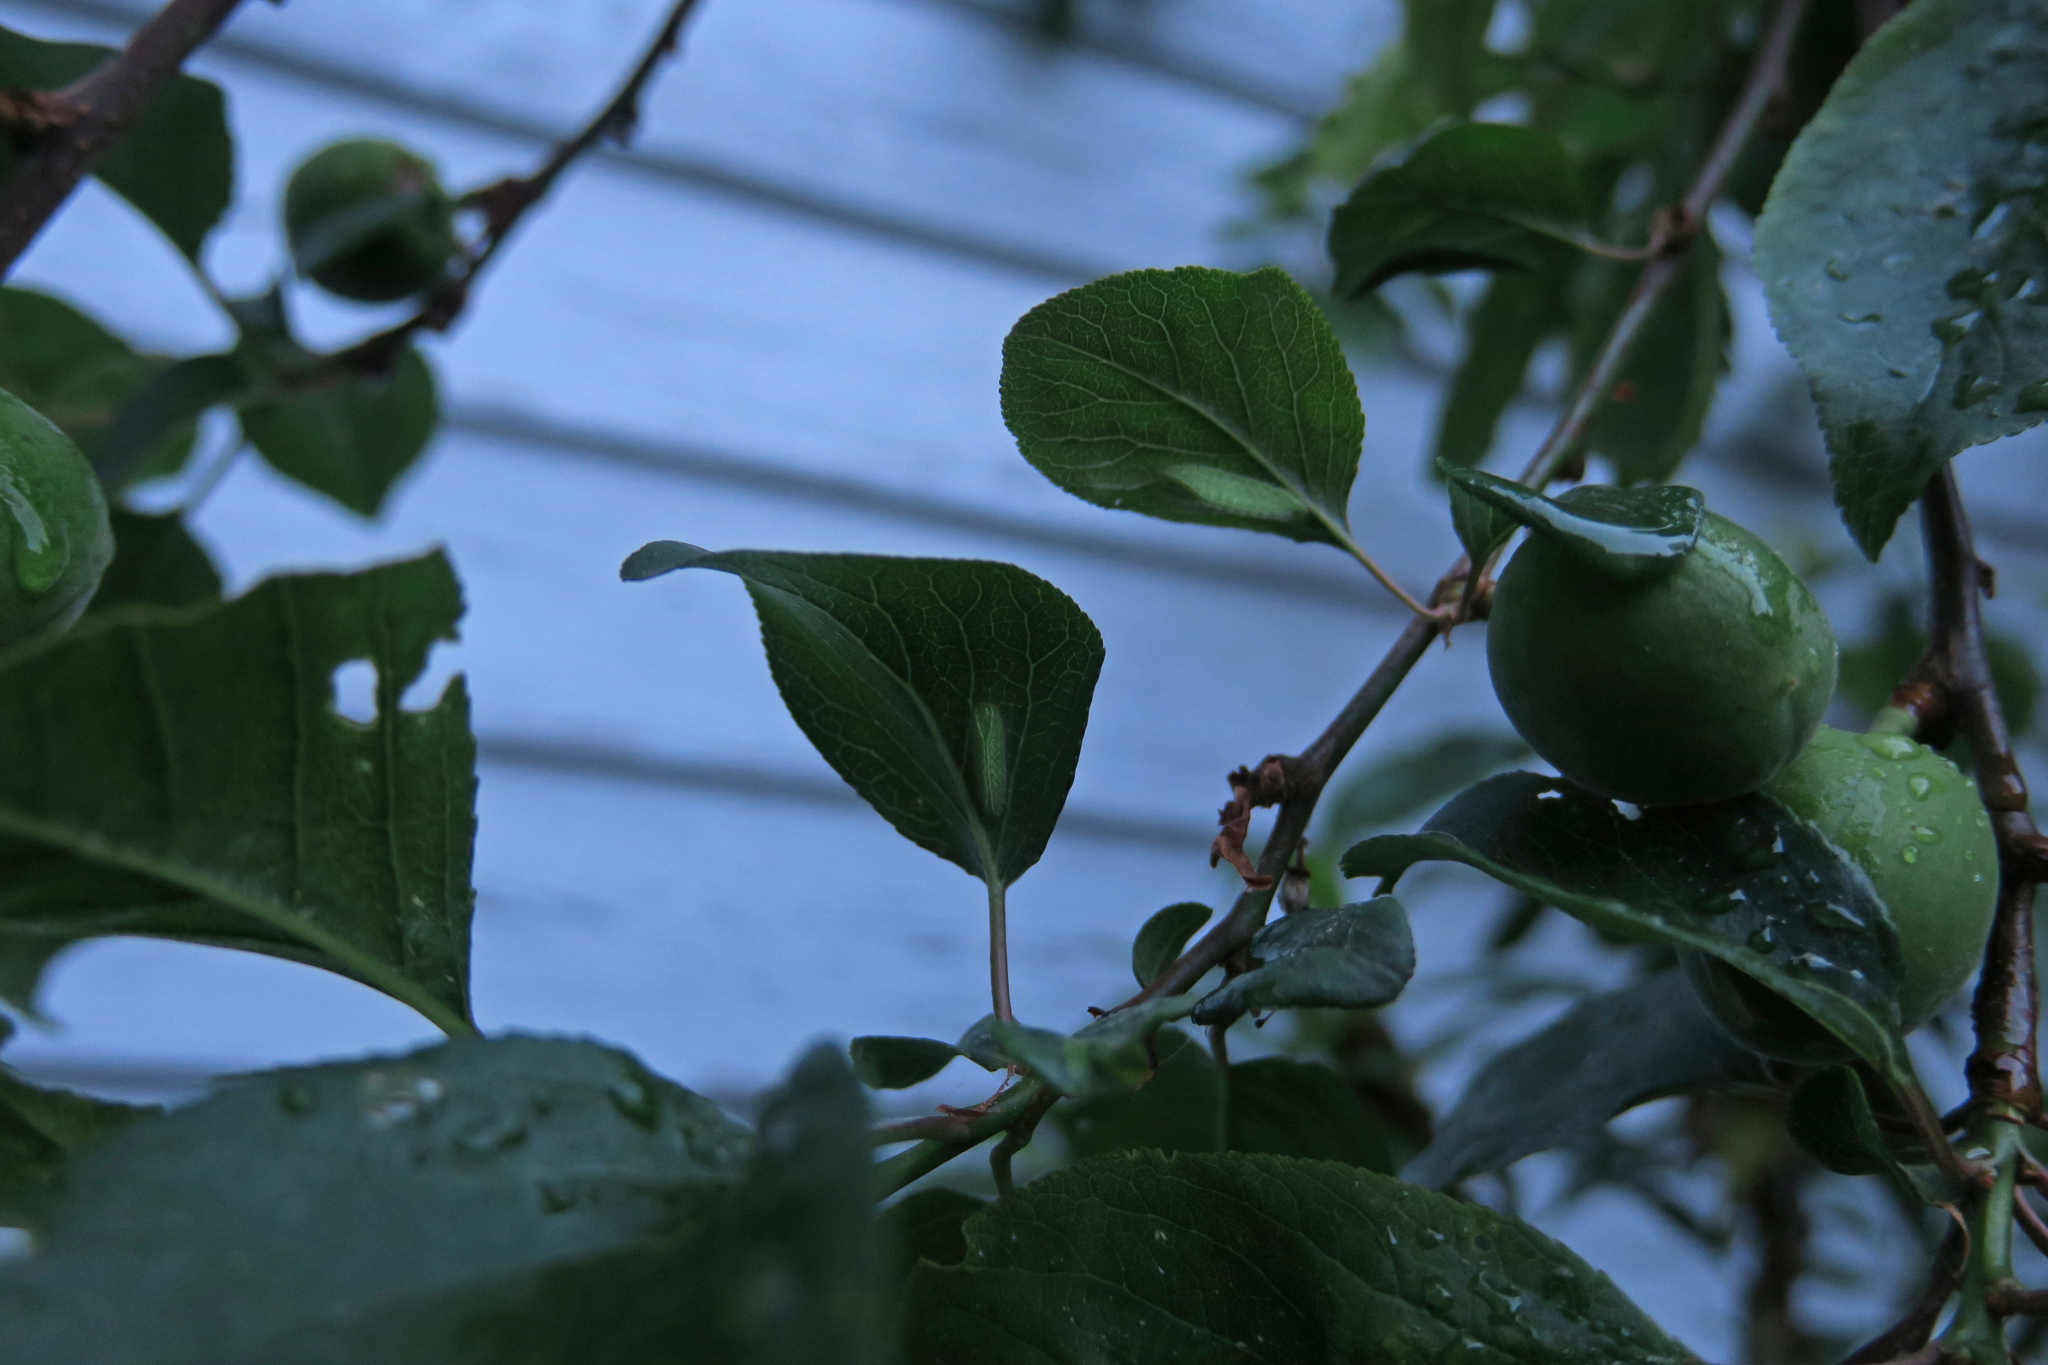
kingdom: Animalia
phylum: Arthropoda
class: Insecta
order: Lepidoptera
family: Lycaenidae
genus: Thecla
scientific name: Thecla betulae
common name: Brown hairstreak
